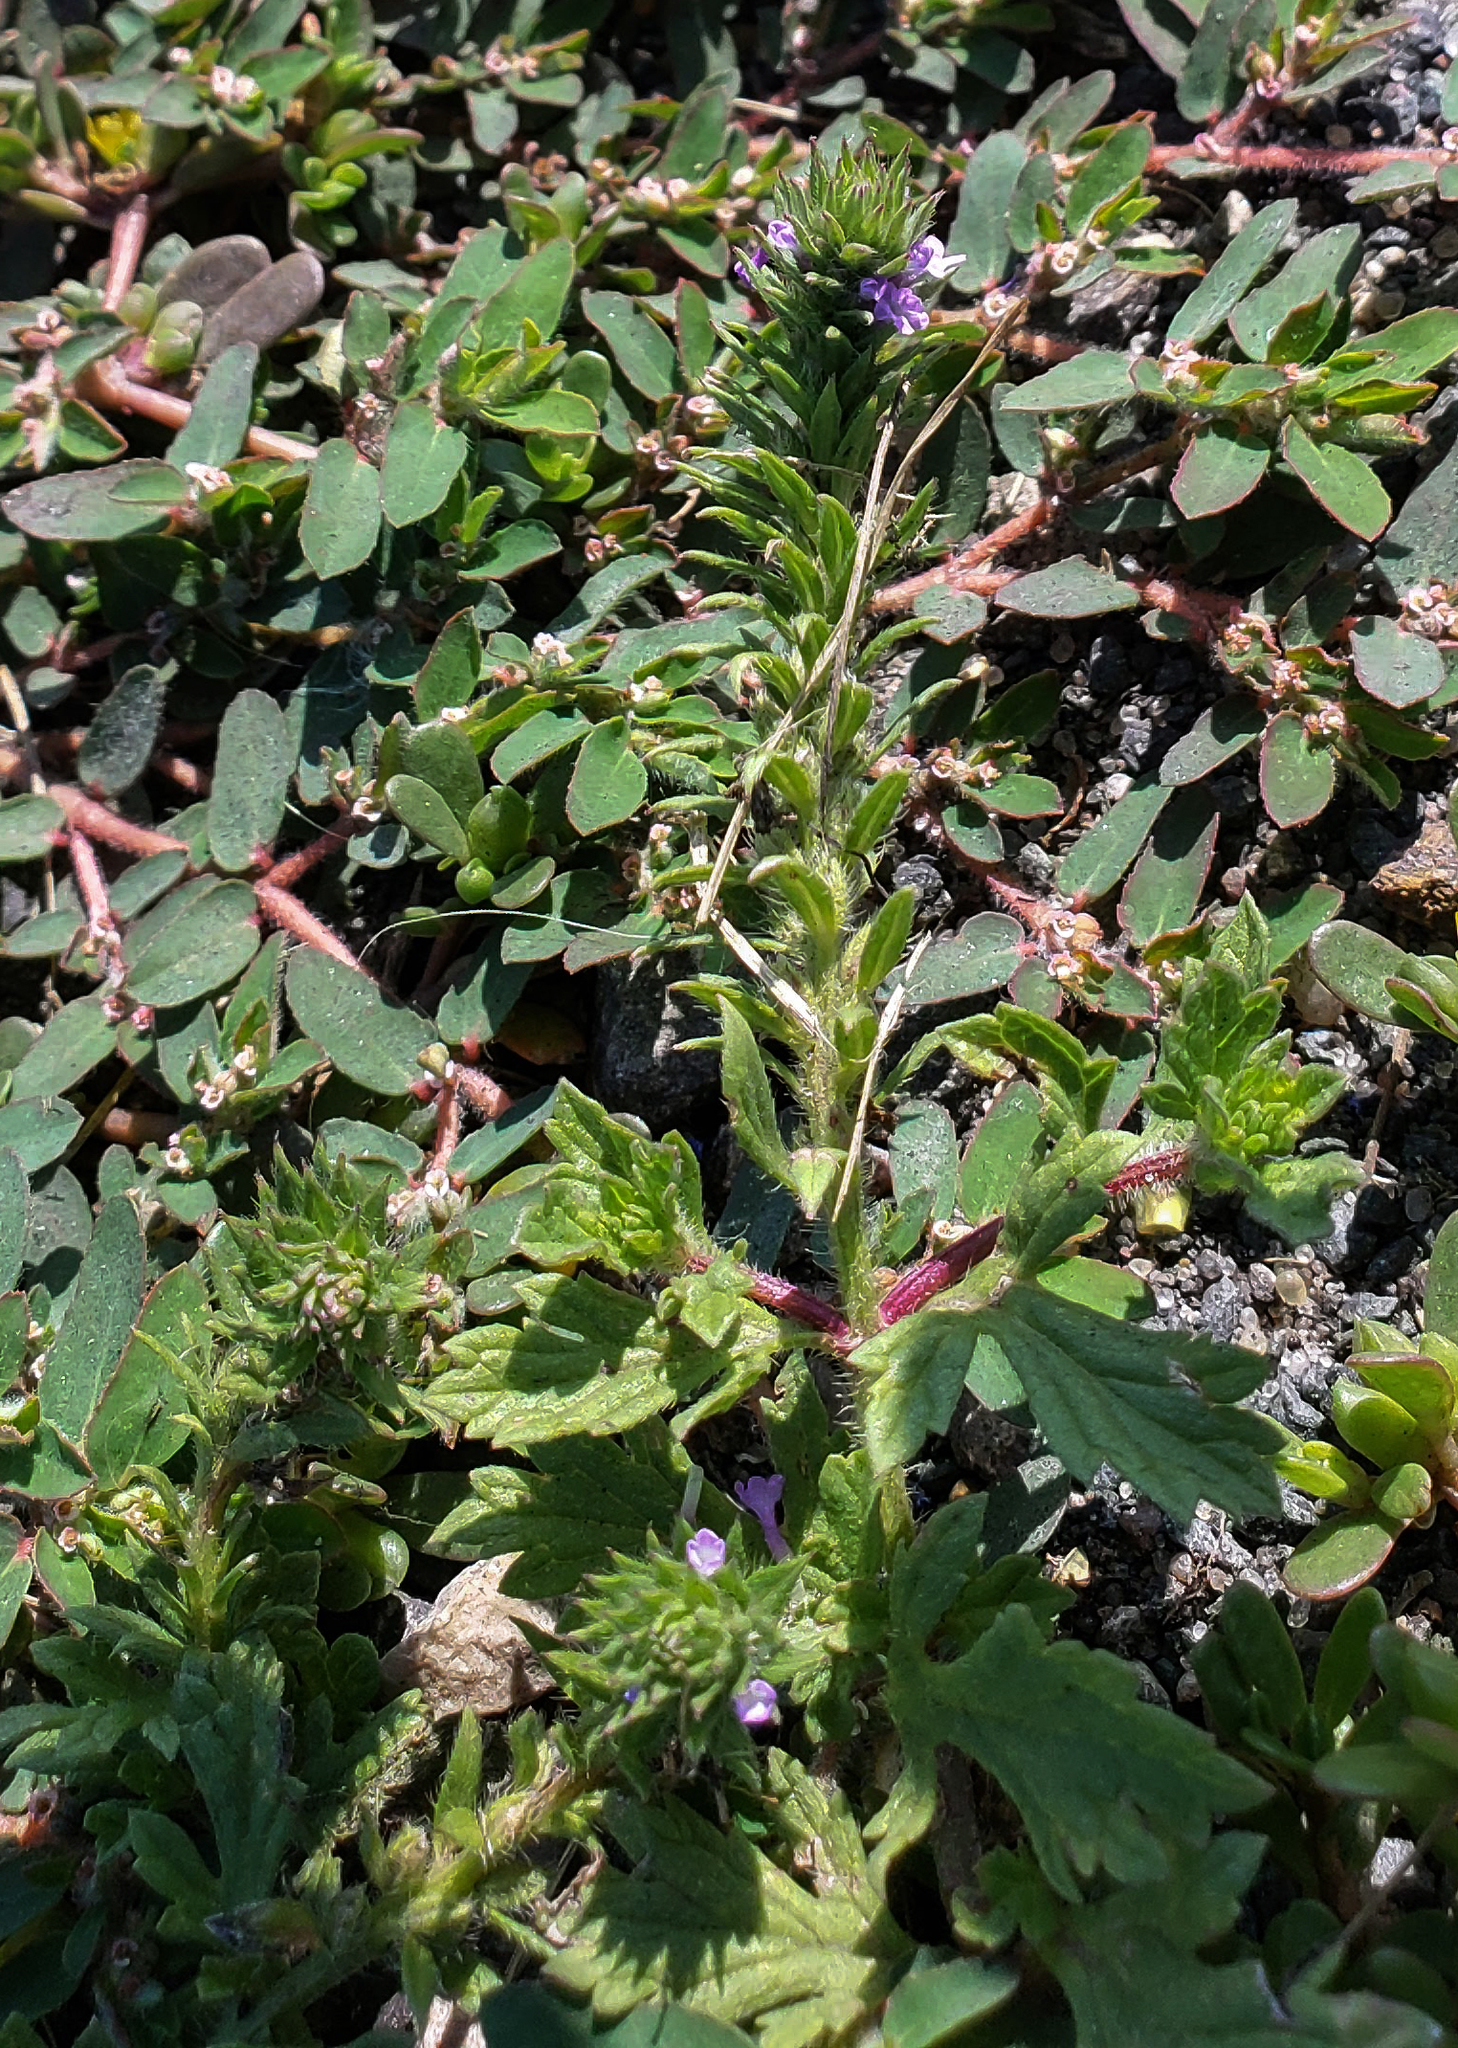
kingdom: Plantae
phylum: Tracheophyta
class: Magnoliopsida
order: Lamiales
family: Verbenaceae
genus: Verbena
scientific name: Verbena bracteata
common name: Bracted vervain
